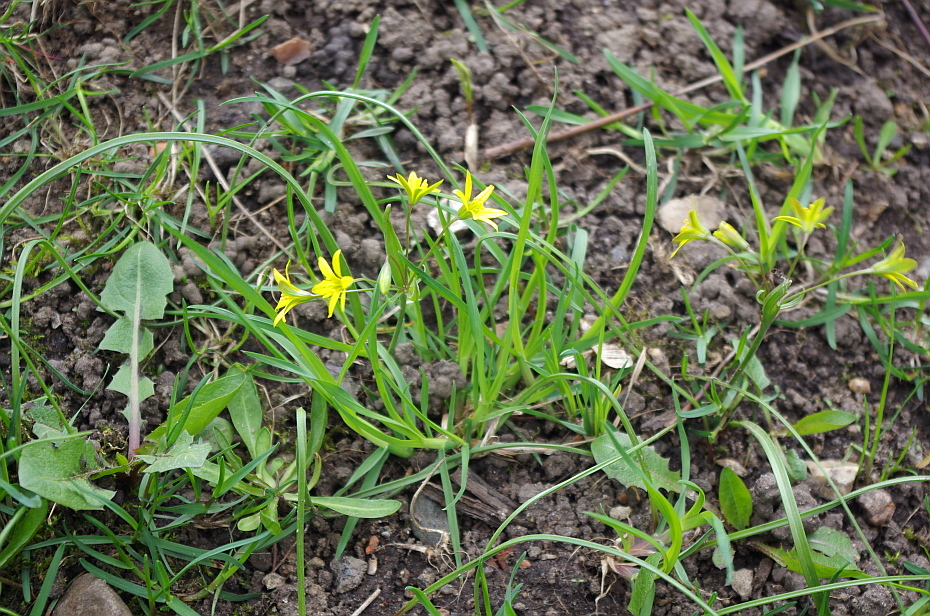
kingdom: Plantae
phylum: Tracheophyta
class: Liliopsida
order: Liliales
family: Liliaceae
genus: Gagea
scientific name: Gagea fragifera
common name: Lily
